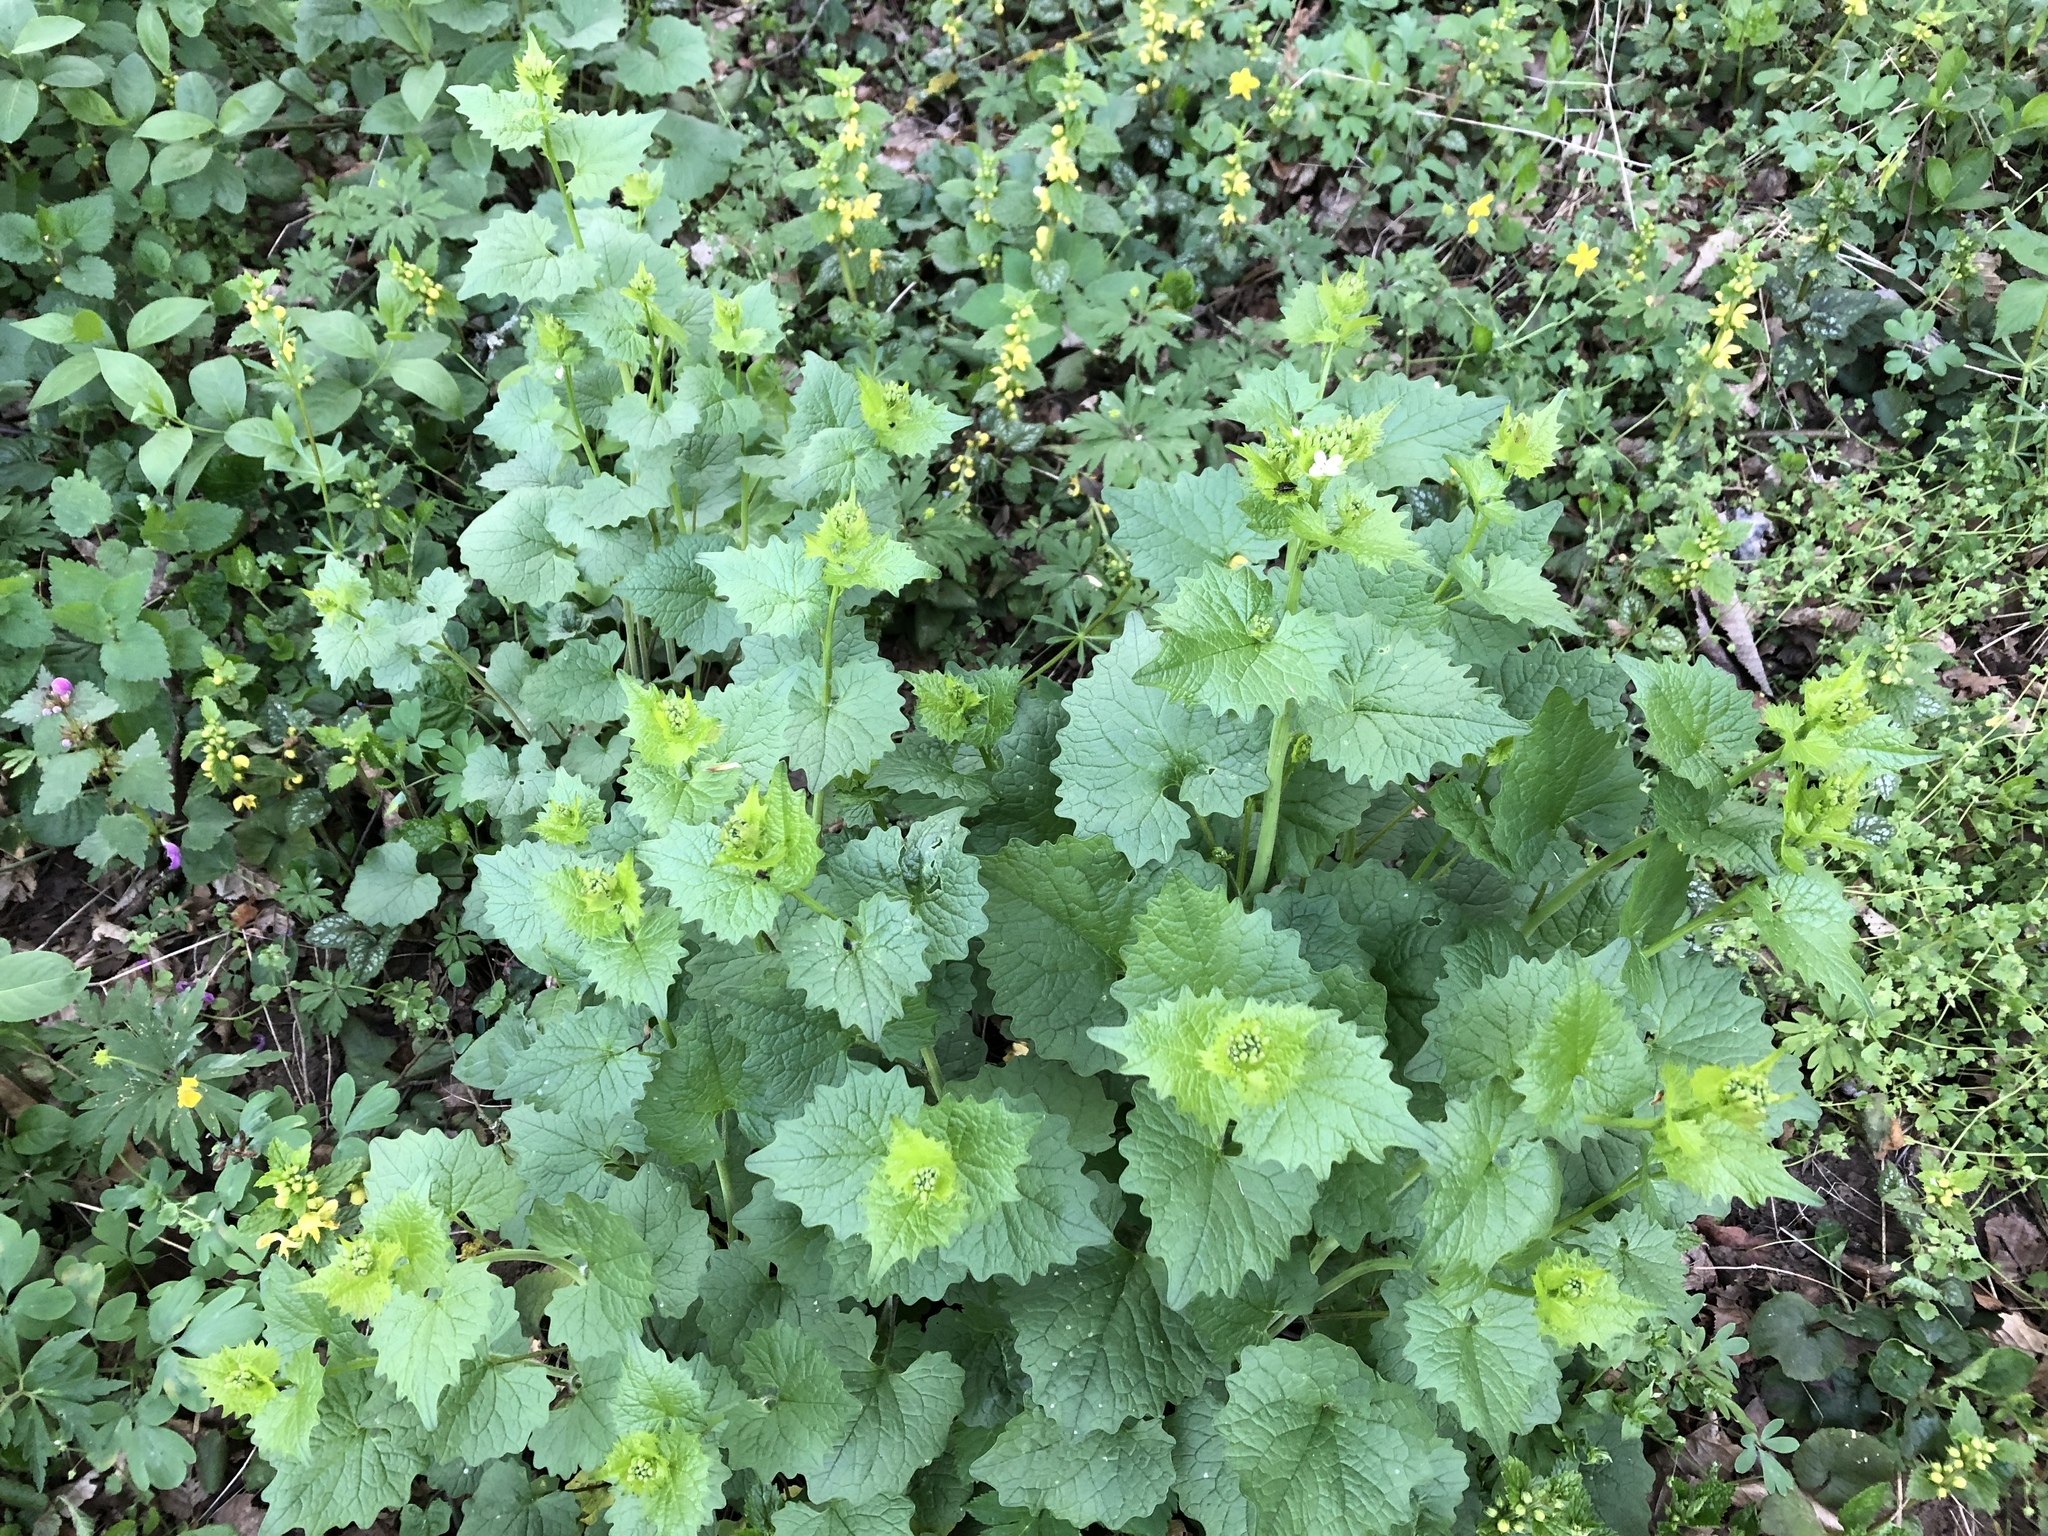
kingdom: Plantae
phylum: Tracheophyta
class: Magnoliopsida
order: Brassicales
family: Brassicaceae
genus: Alliaria
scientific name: Alliaria petiolata
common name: Garlic mustard
